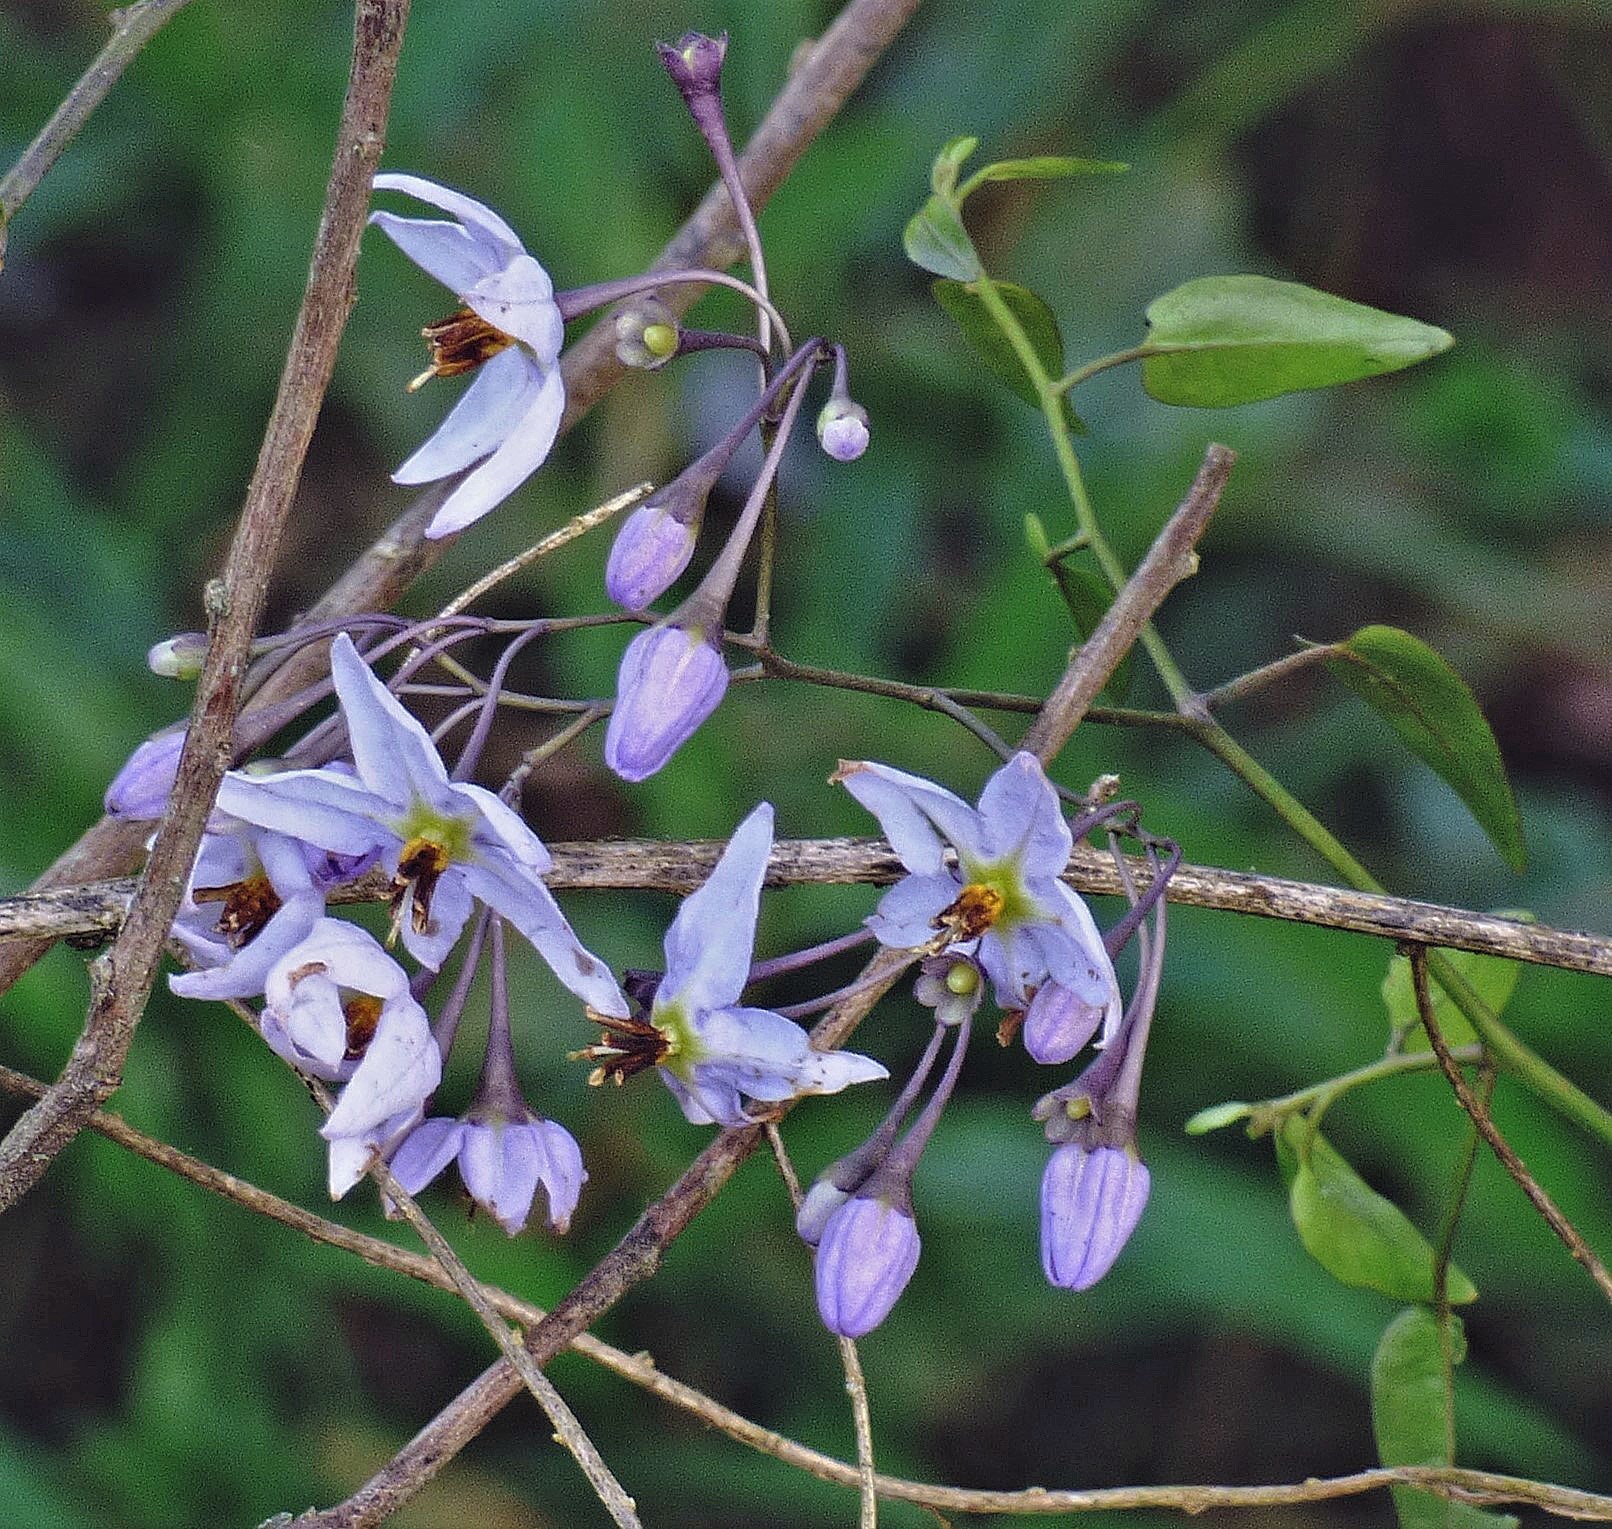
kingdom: Plantae
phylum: Tracheophyta
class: Magnoliopsida
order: Solanales
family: Solanaceae
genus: Solanum
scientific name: Solanum laxum
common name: Nightshade
